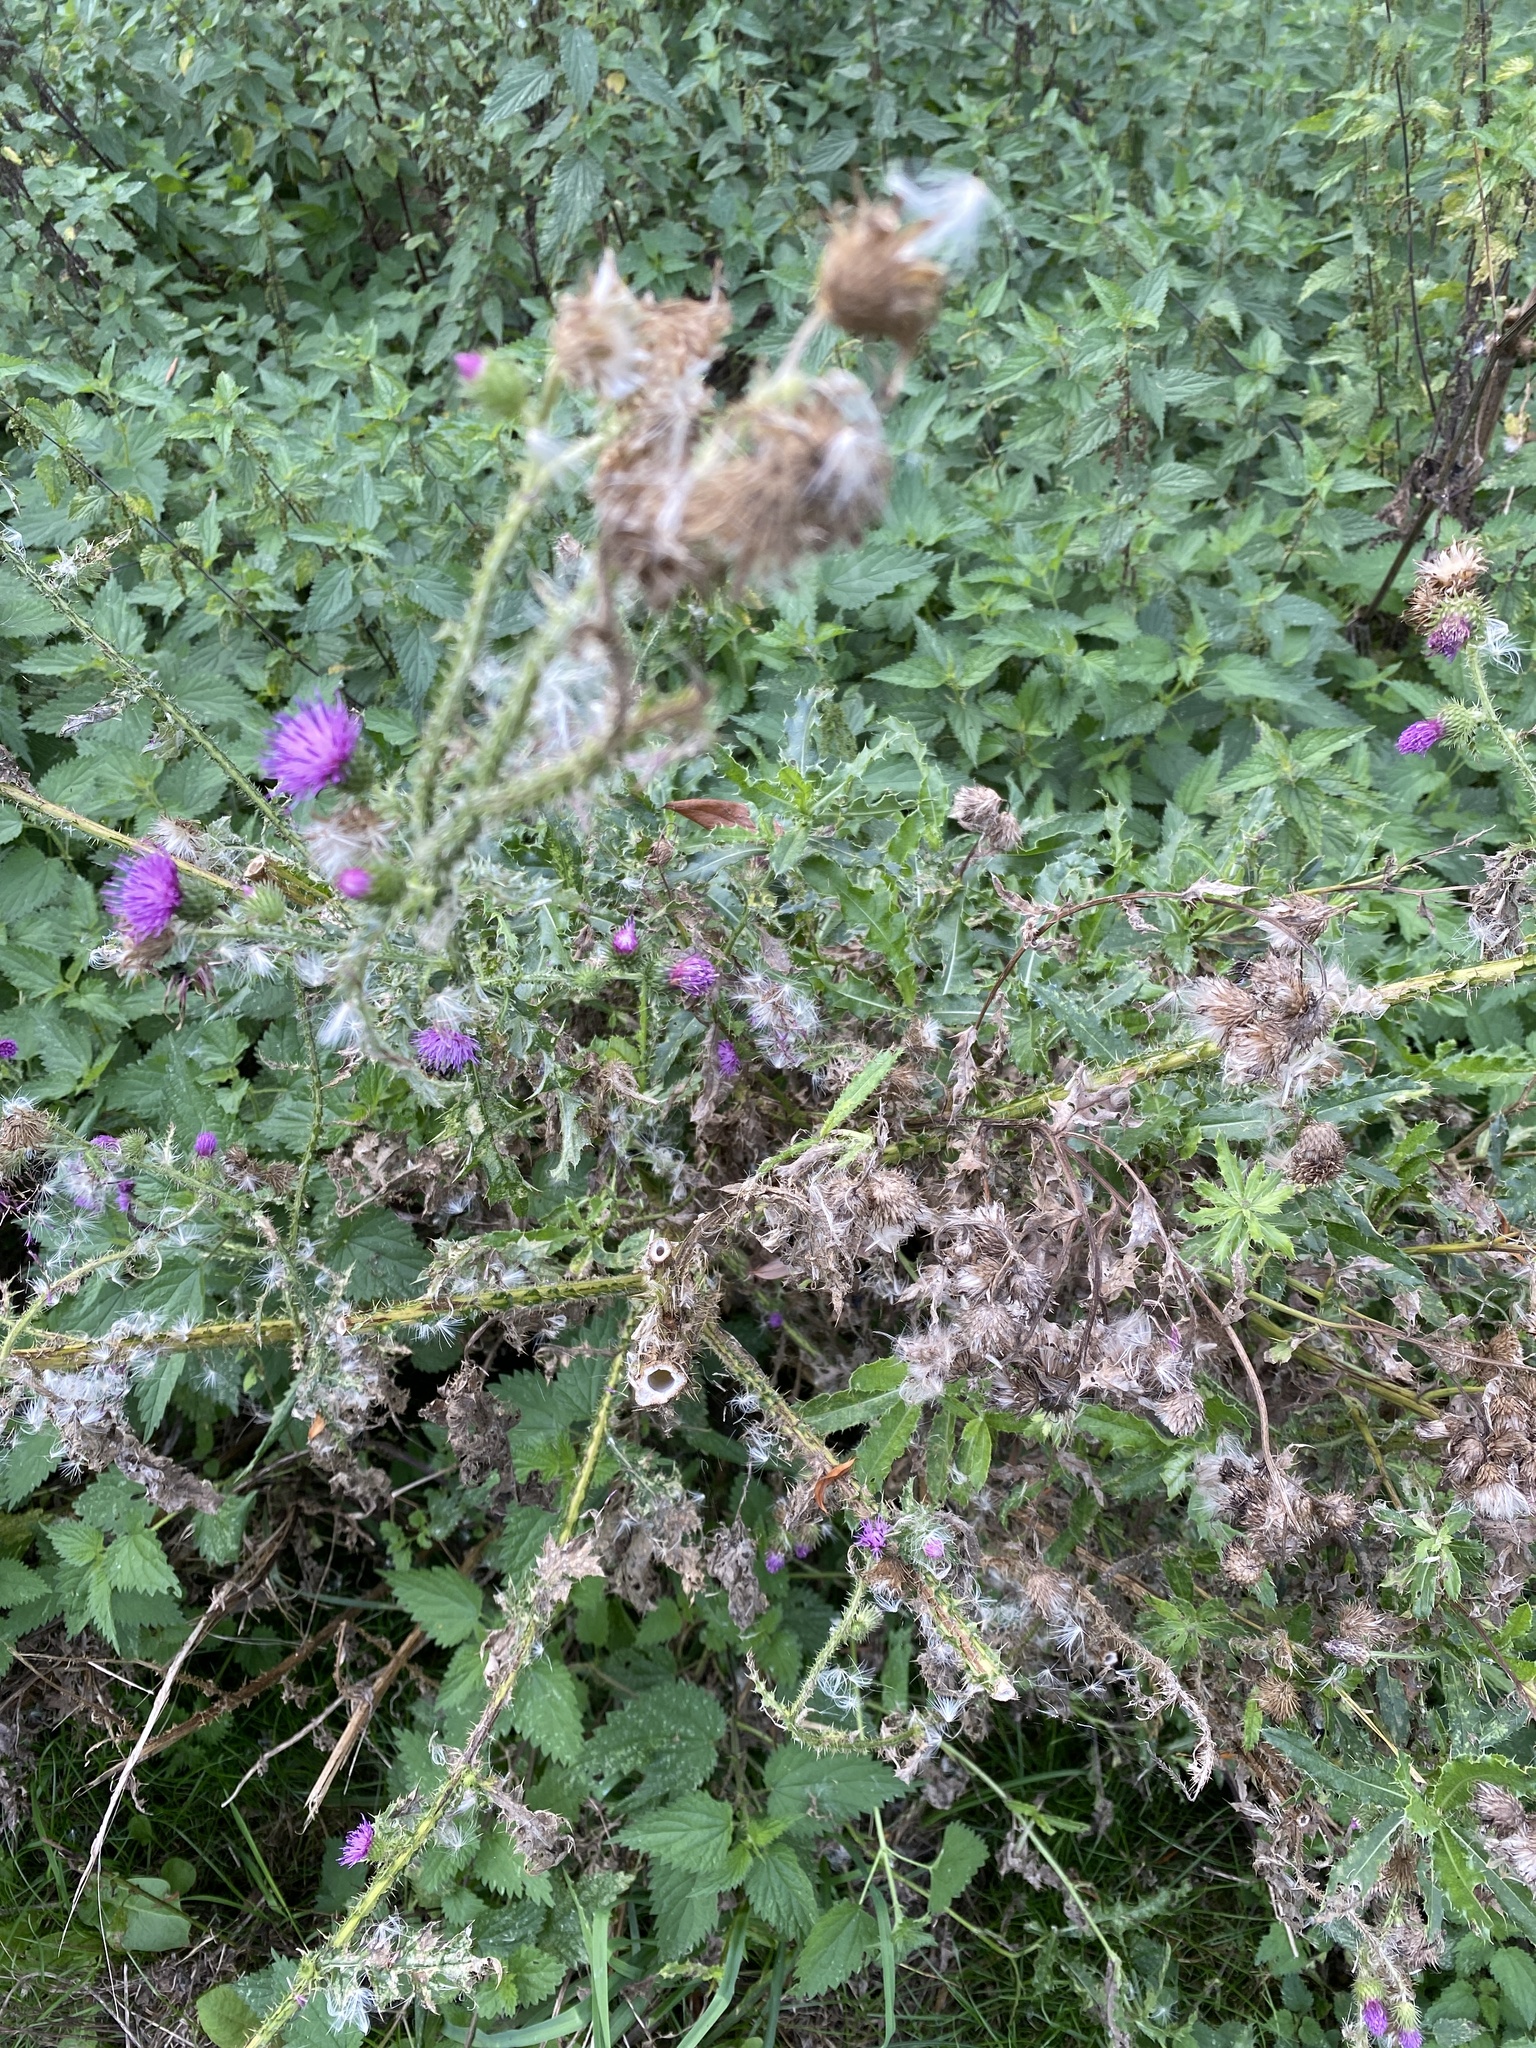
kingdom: Plantae
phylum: Tracheophyta
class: Magnoliopsida
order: Asterales
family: Asteraceae
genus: Carduus
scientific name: Carduus crispus
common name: Welted thistle
